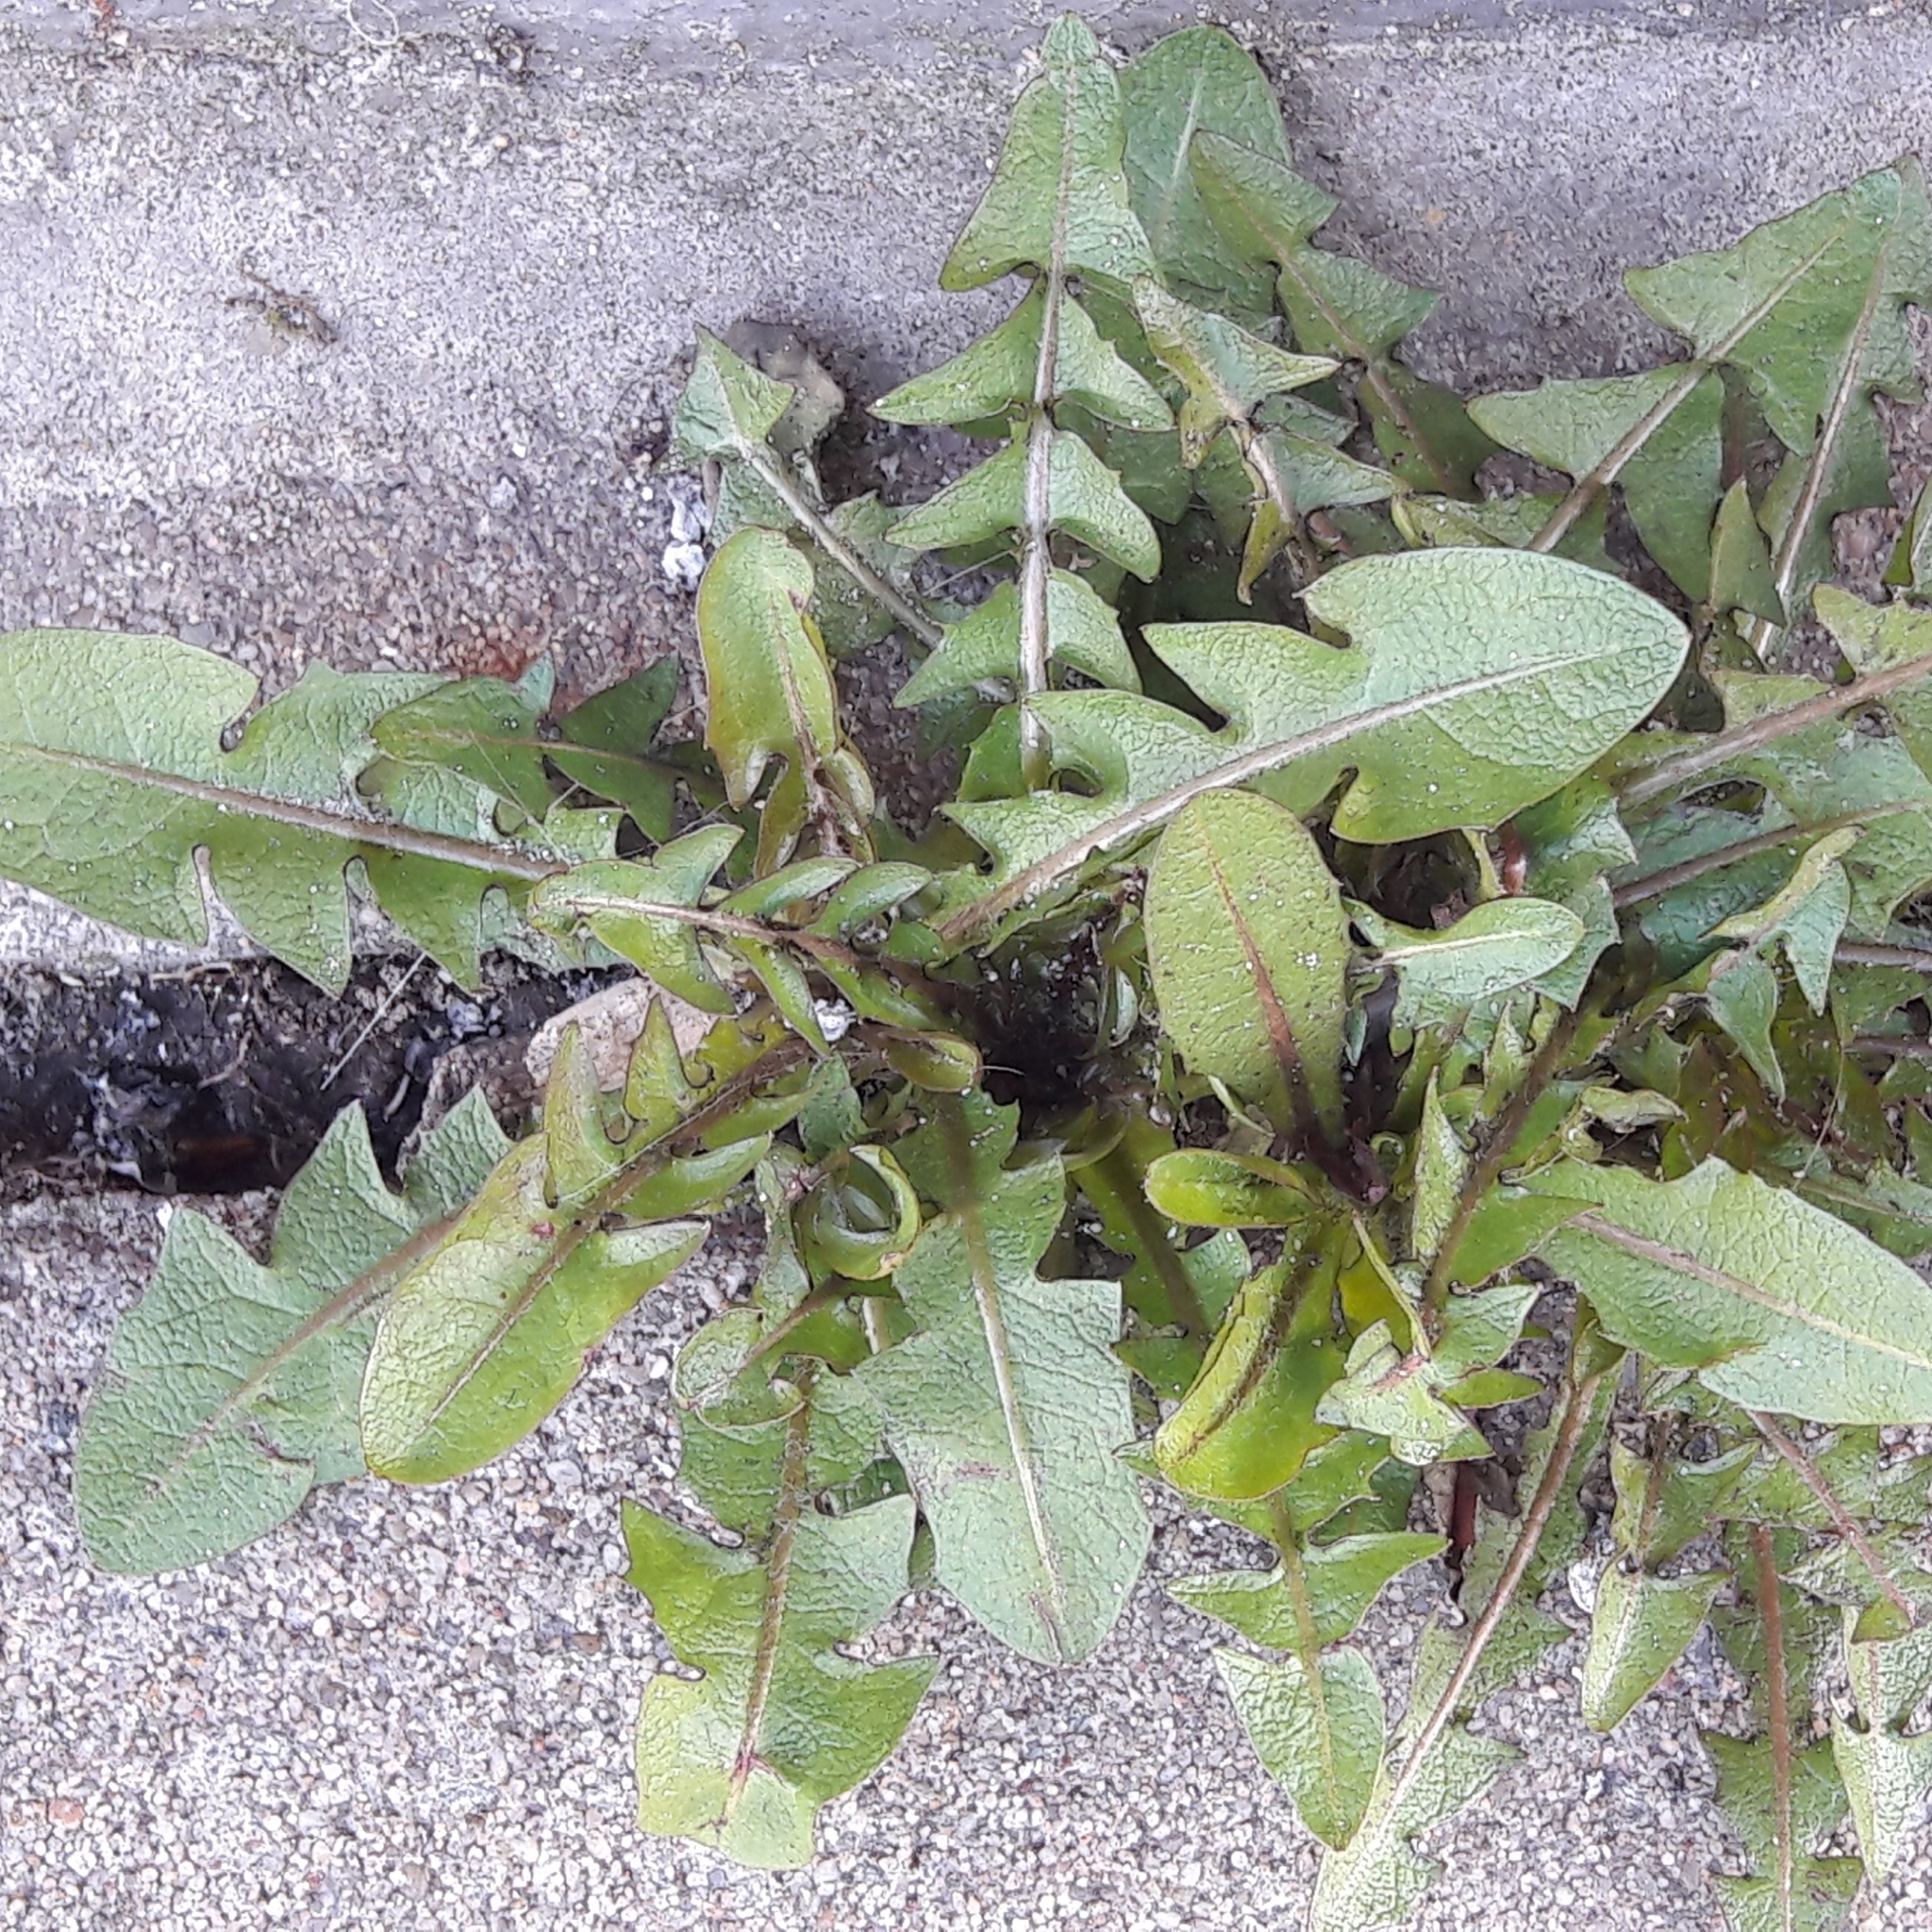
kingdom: Plantae
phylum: Tracheophyta
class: Magnoliopsida
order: Asterales
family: Asteraceae
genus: Taraxacum
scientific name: Taraxacum officinale
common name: Common dandelion
